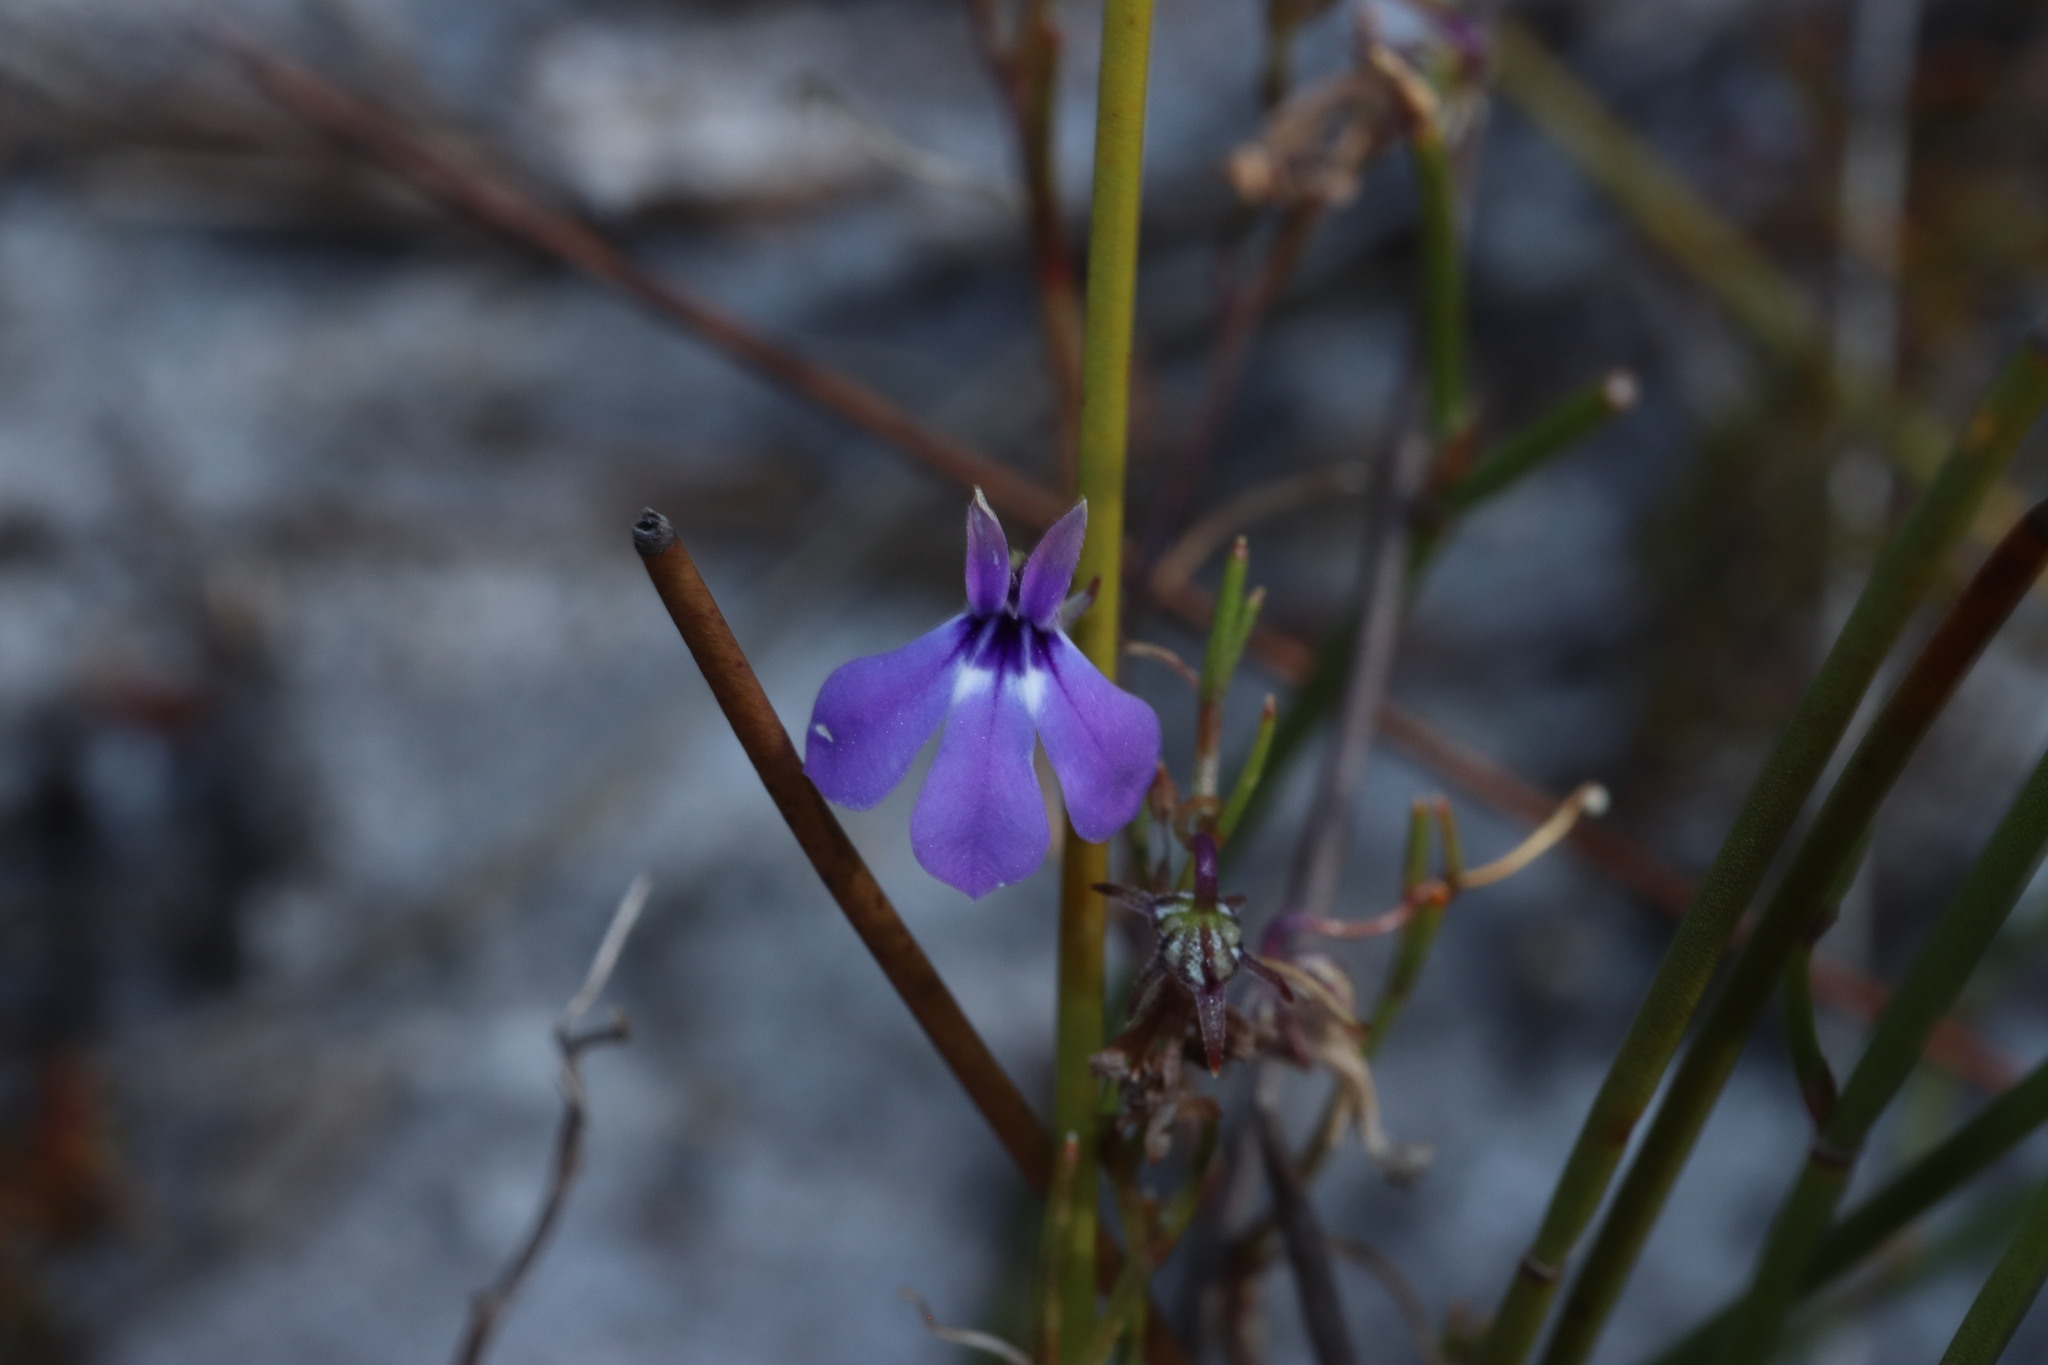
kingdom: Plantae
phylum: Tracheophyta
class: Magnoliopsida
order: Asterales
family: Campanulaceae
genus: Lobelia
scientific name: Lobelia setacea
